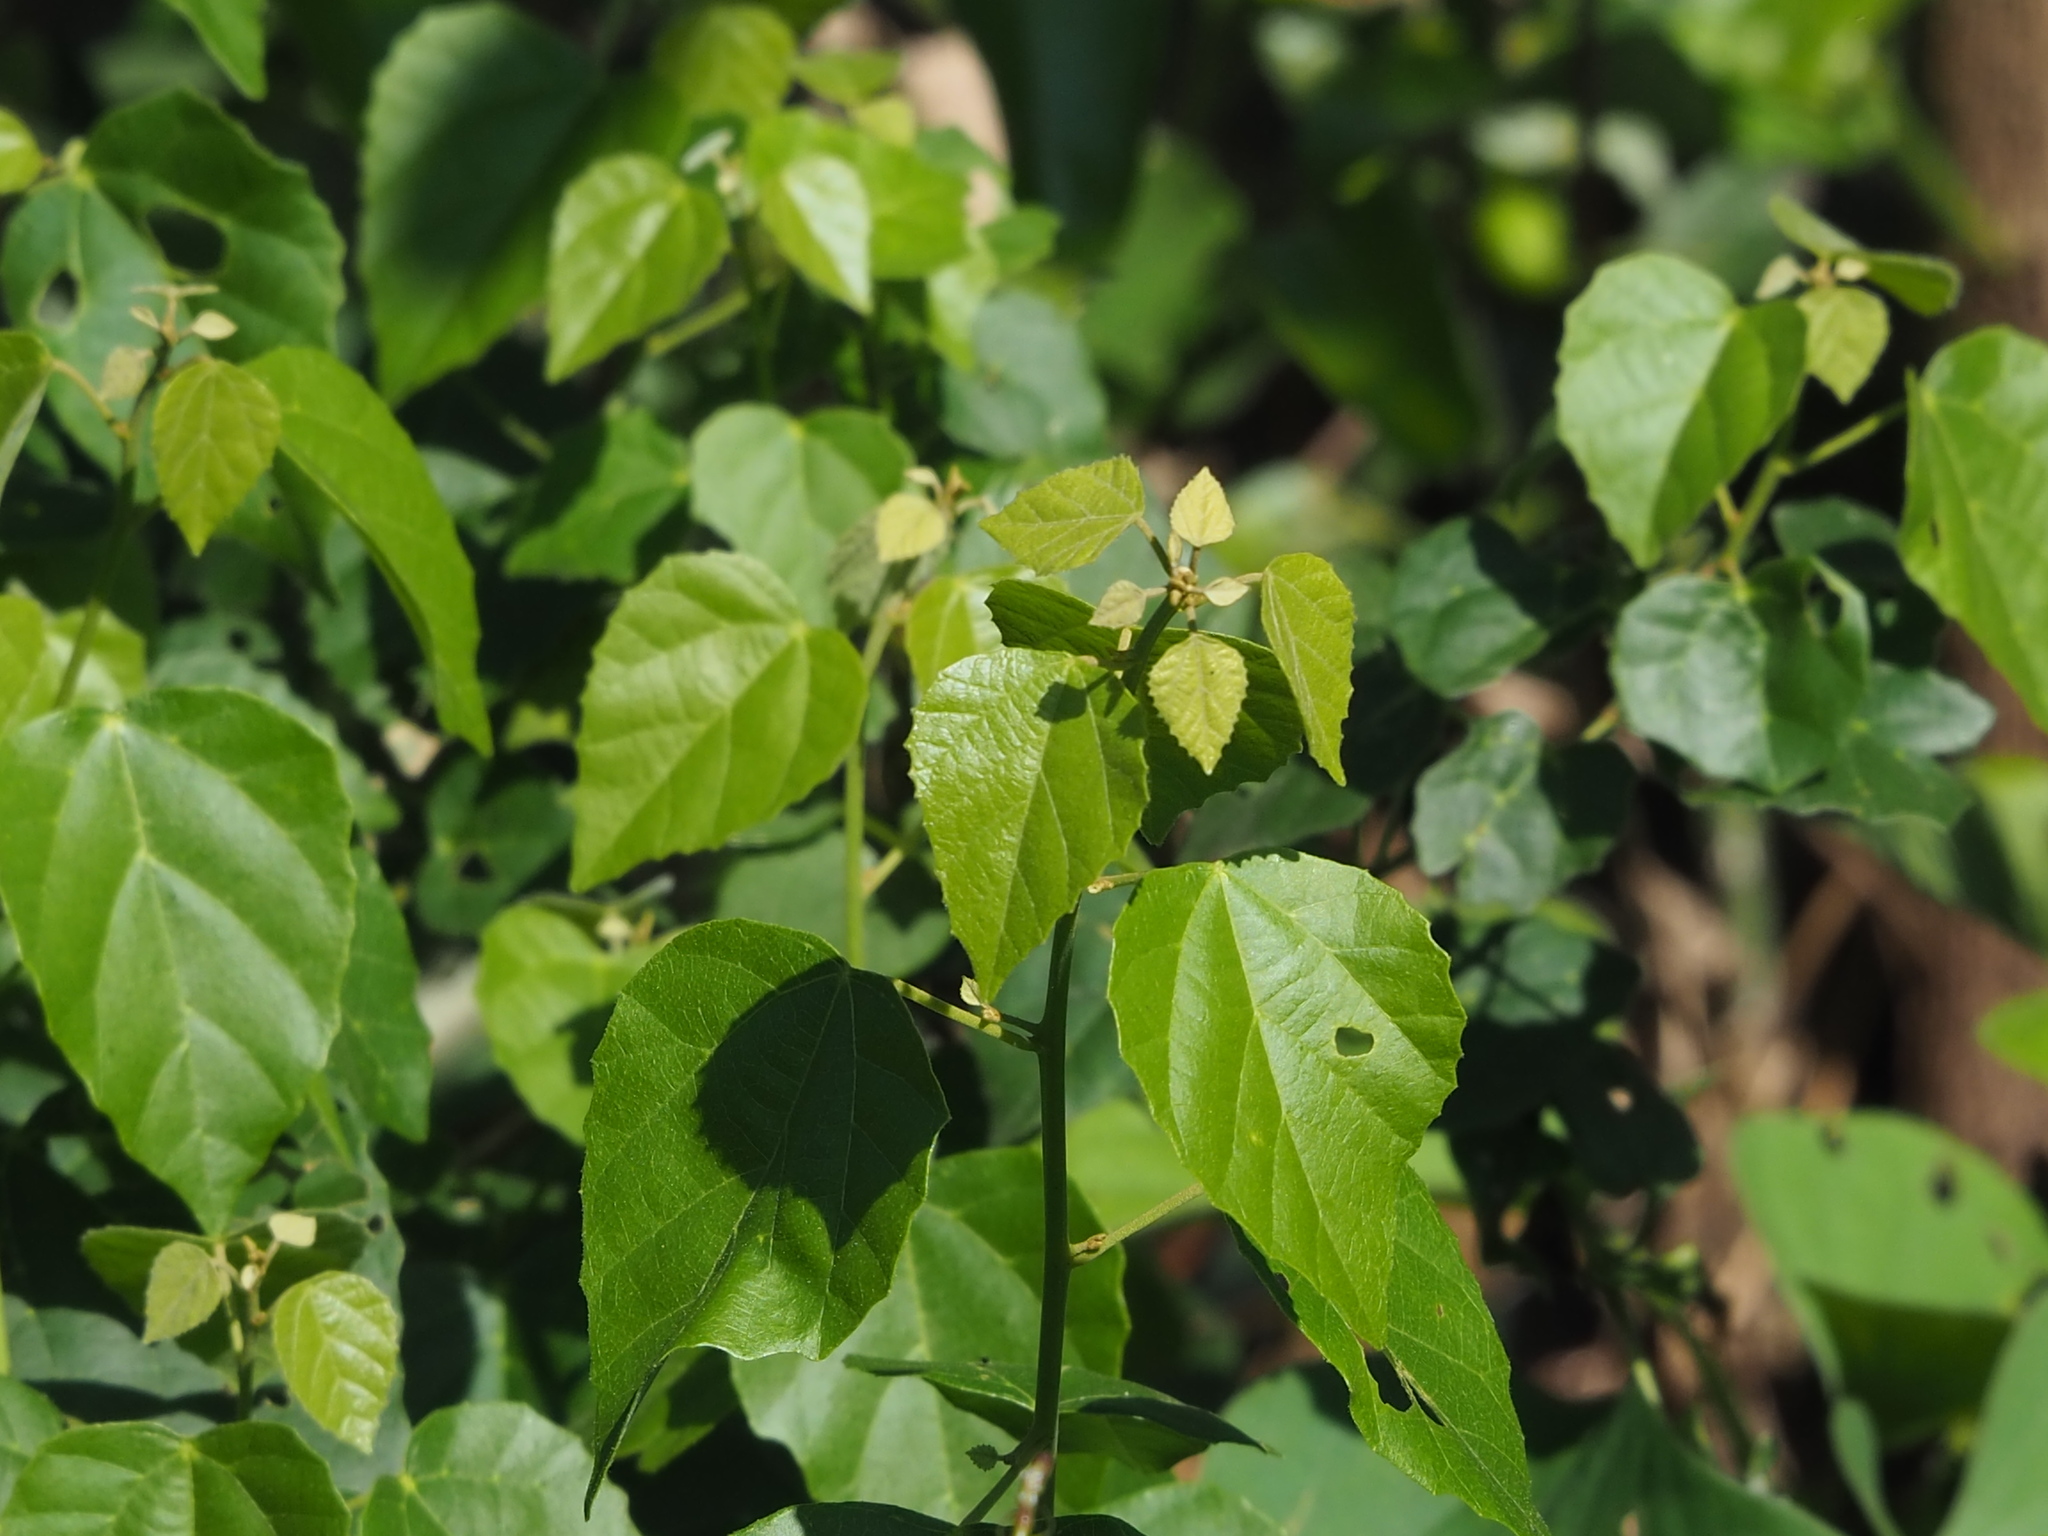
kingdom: Plantae
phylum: Tracheophyta
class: Magnoliopsida
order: Malpighiales
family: Euphorbiaceae
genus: Mallotus
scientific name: Mallotus repandus
